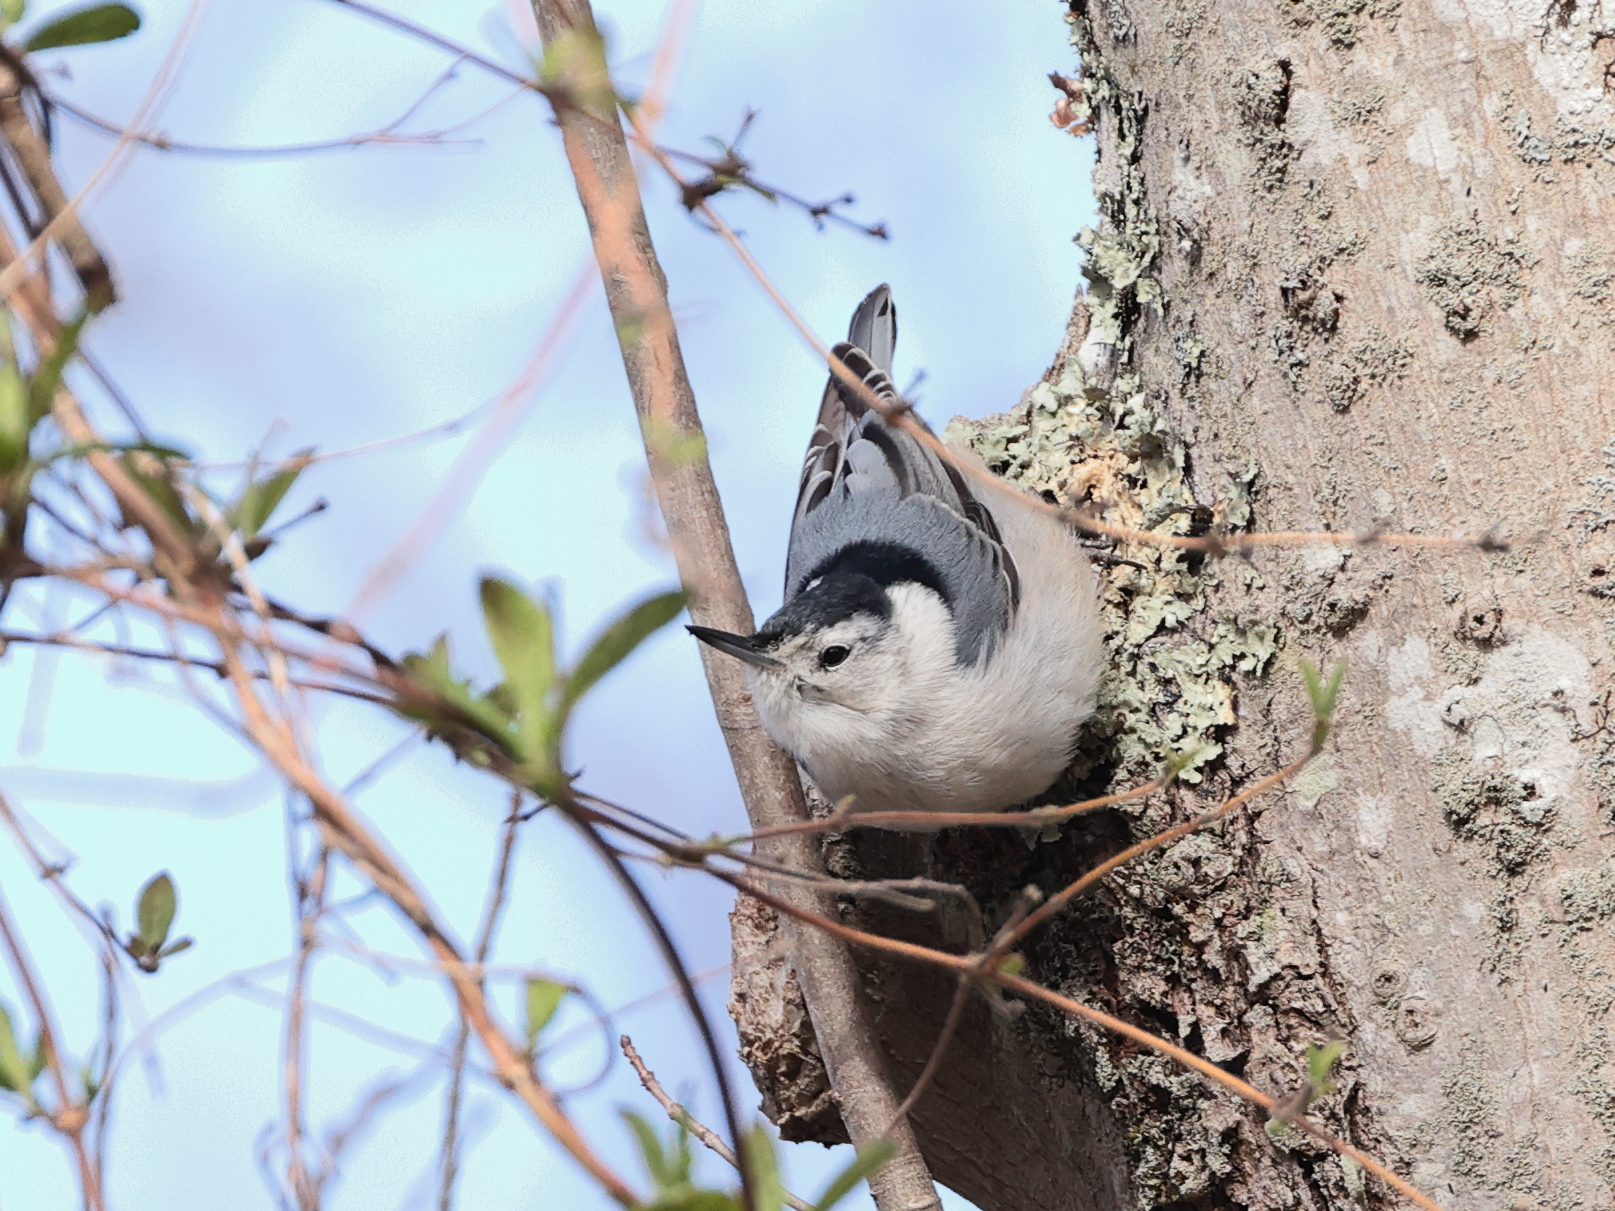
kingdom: Animalia
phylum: Chordata
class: Aves
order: Passeriformes
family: Sittidae
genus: Sitta
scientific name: Sitta carolinensis
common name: White-breasted nuthatch
